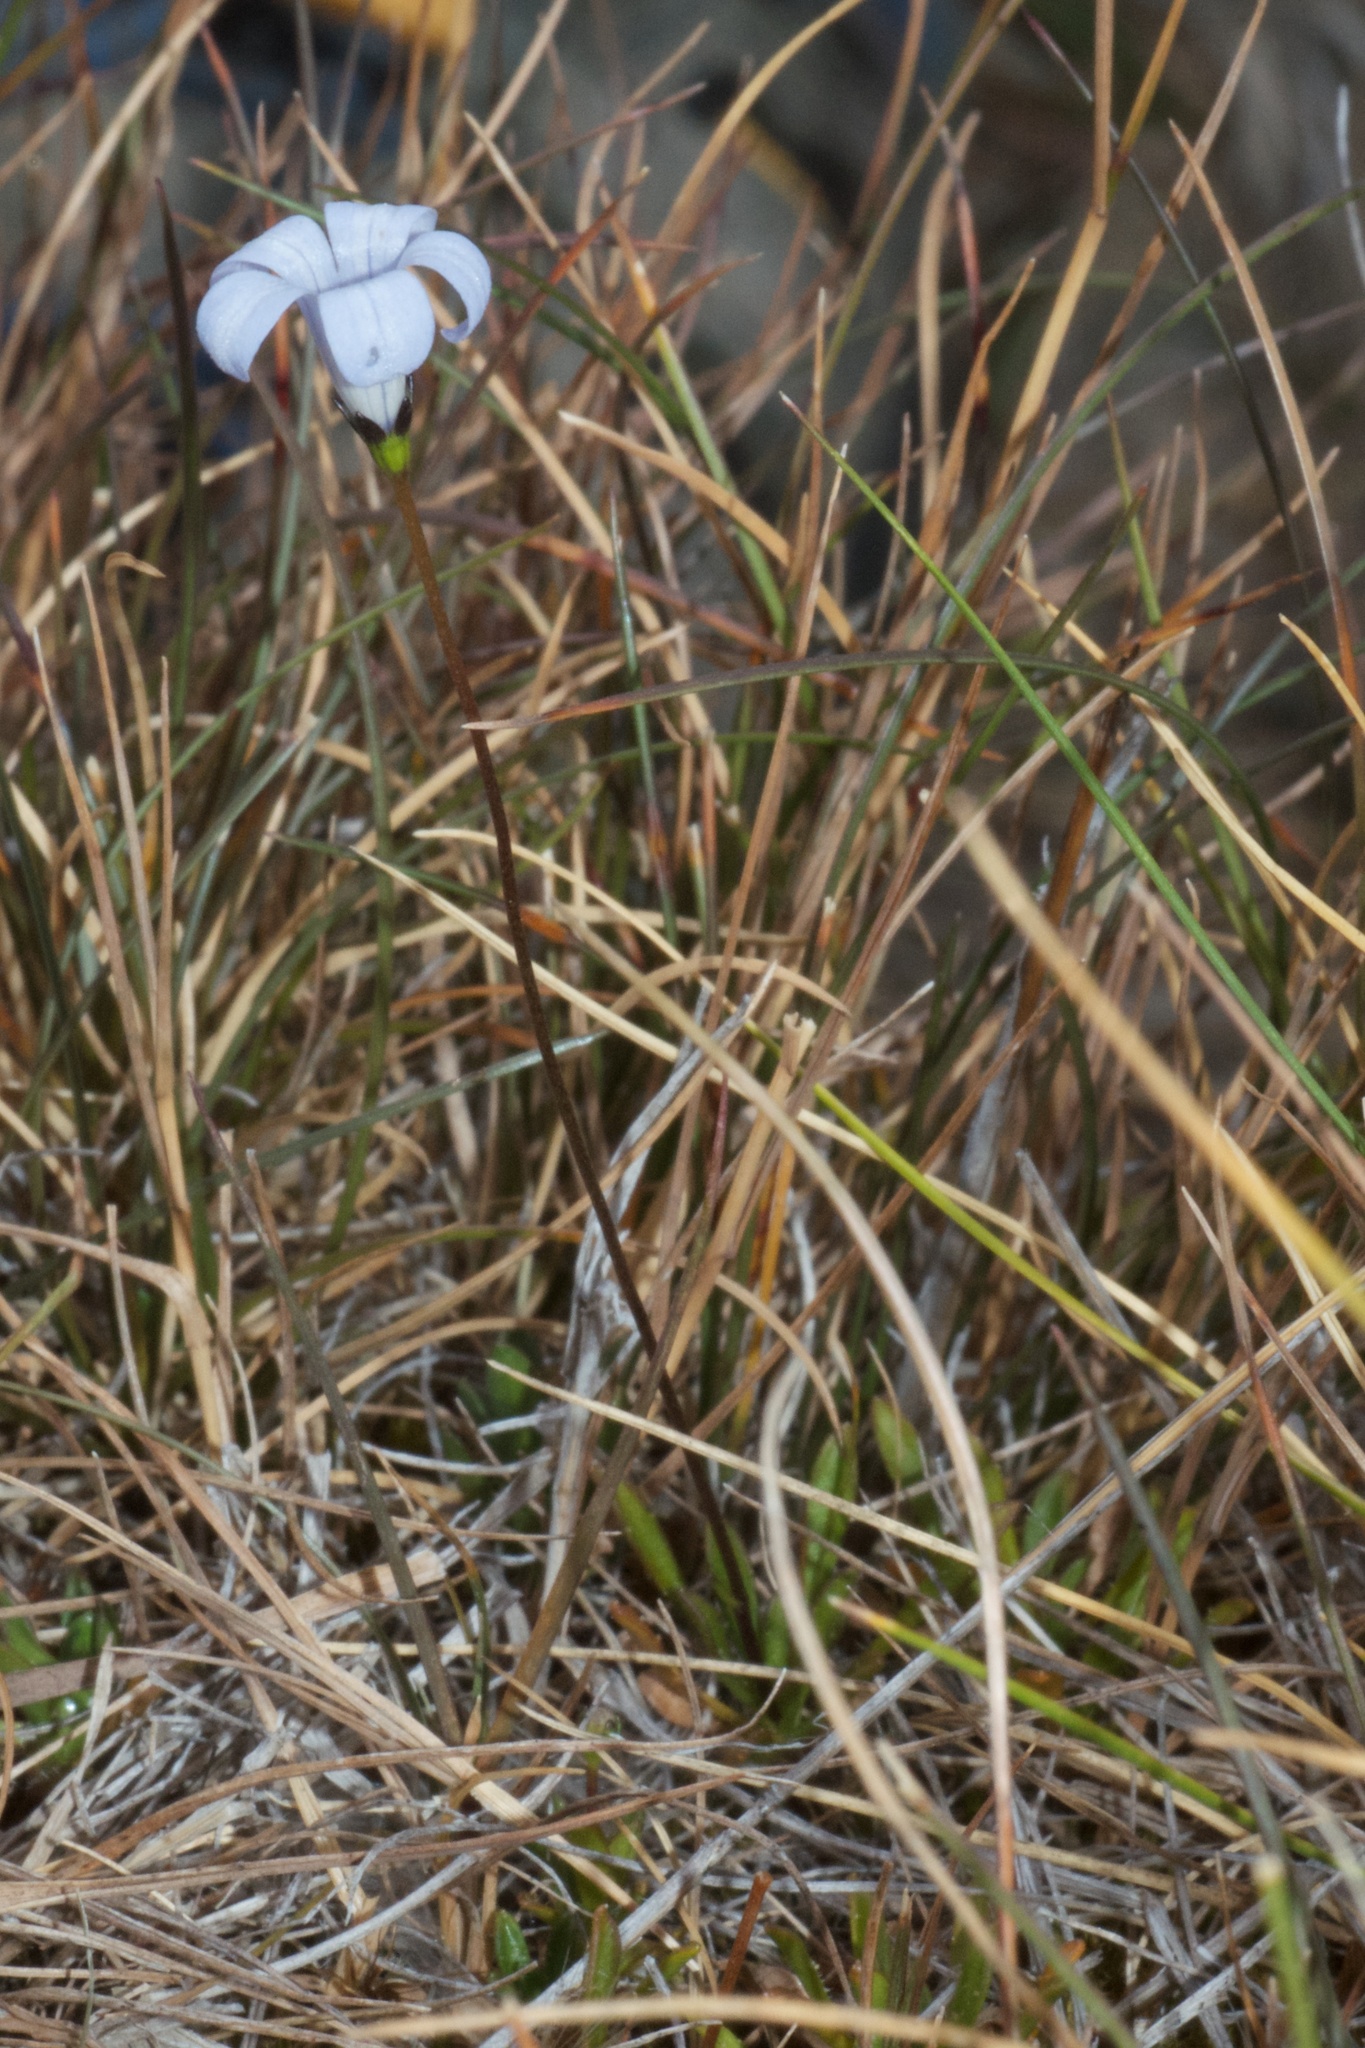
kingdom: Plantae
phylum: Tracheophyta
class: Magnoliopsida
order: Asterales
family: Campanulaceae
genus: Wahlenbergia
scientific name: Wahlenbergia albomarginata
